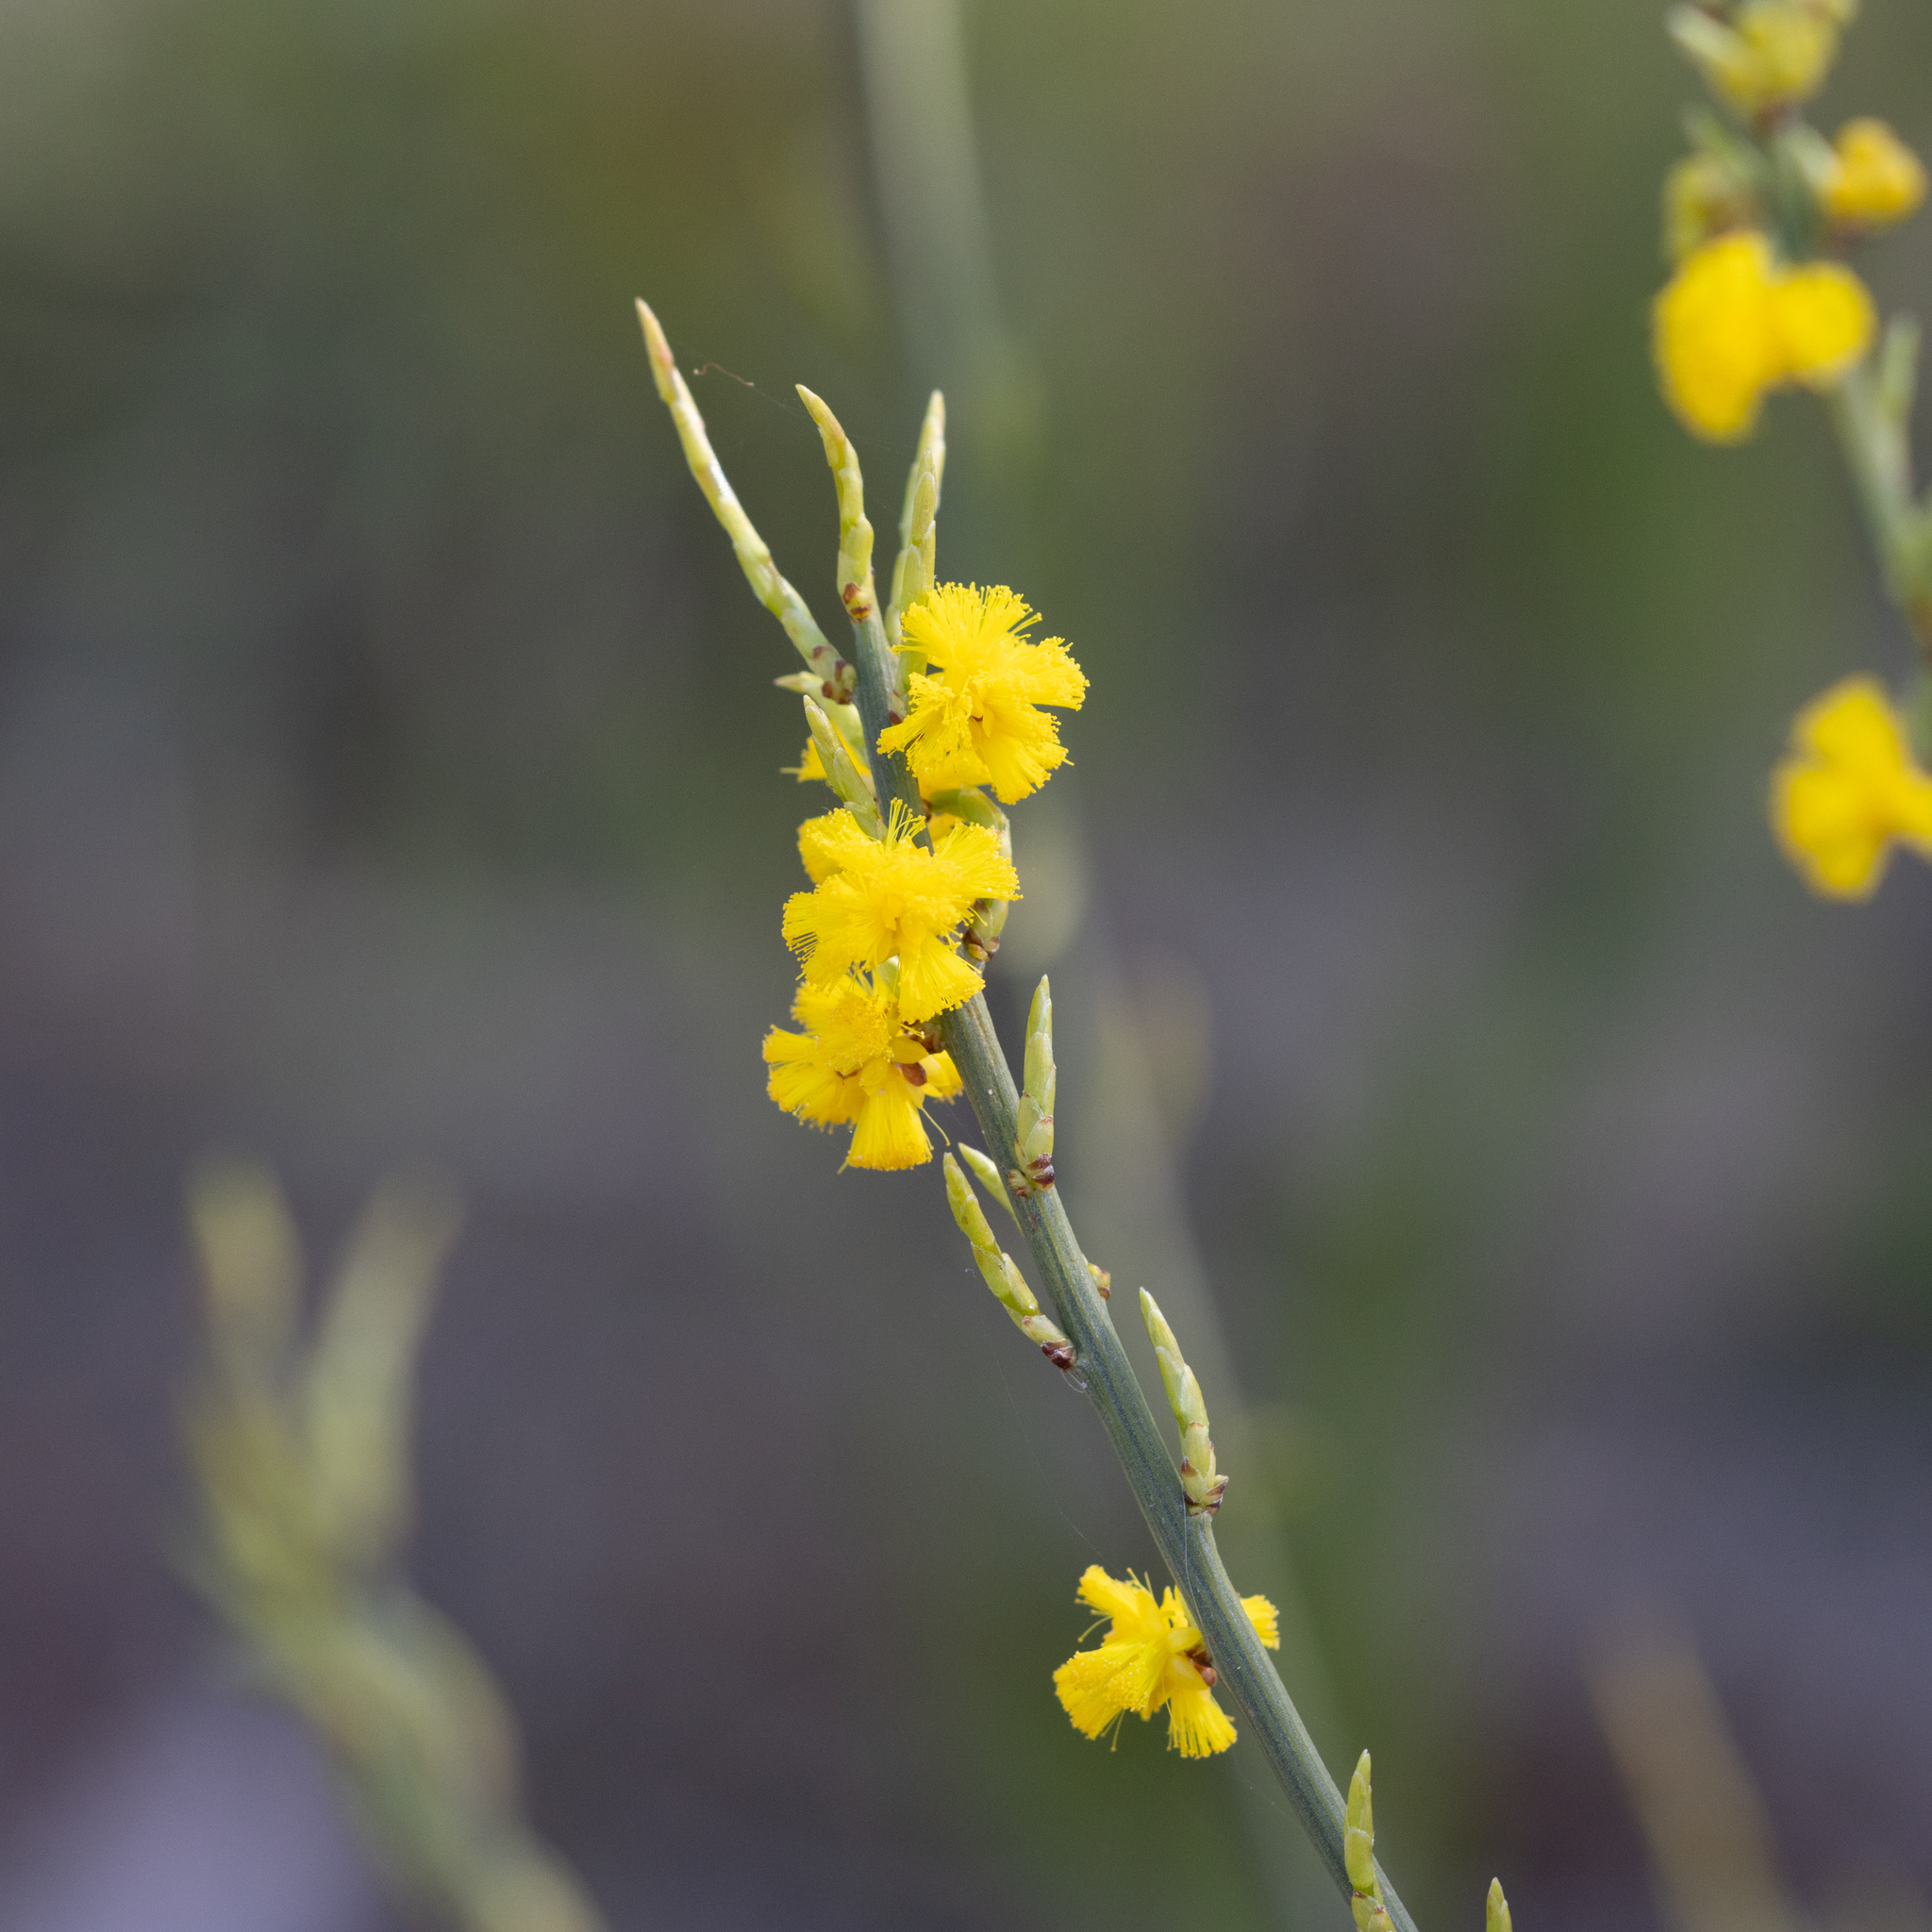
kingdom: Plantae
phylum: Tracheophyta
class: Magnoliopsida
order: Fabales
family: Fabaceae
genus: Acacia
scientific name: Acacia spinescens
